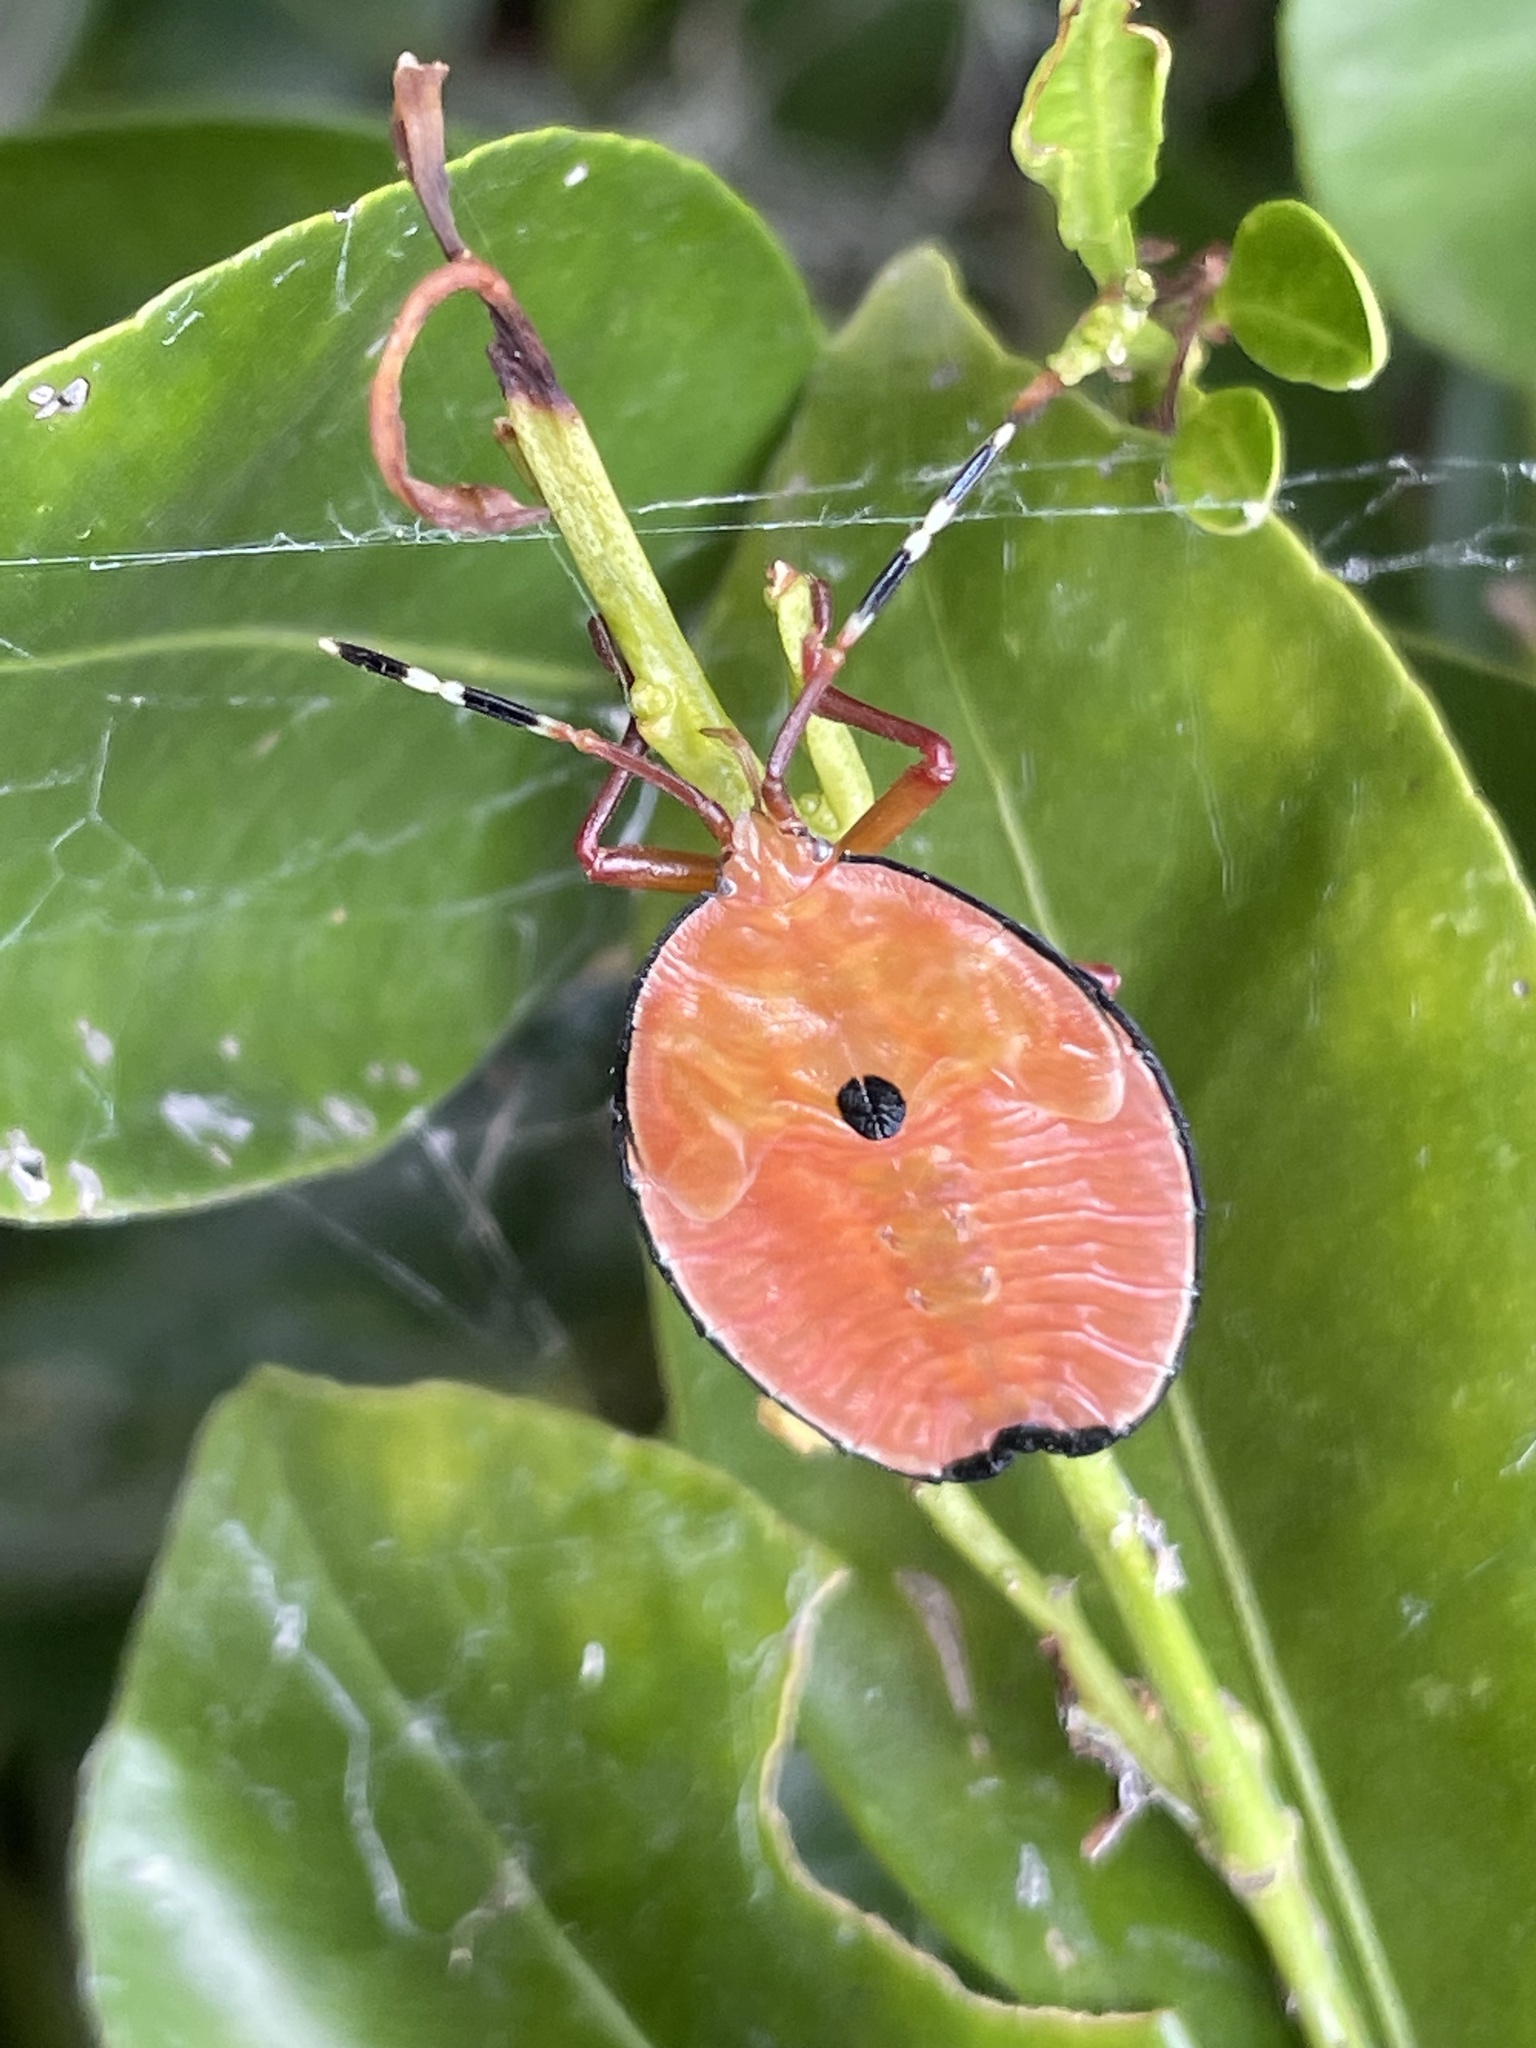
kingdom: Animalia
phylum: Arthropoda
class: Insecta
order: Hemiptera
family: Tessaratomidae
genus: Musgraveia
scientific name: Musgraveia sulciventris
